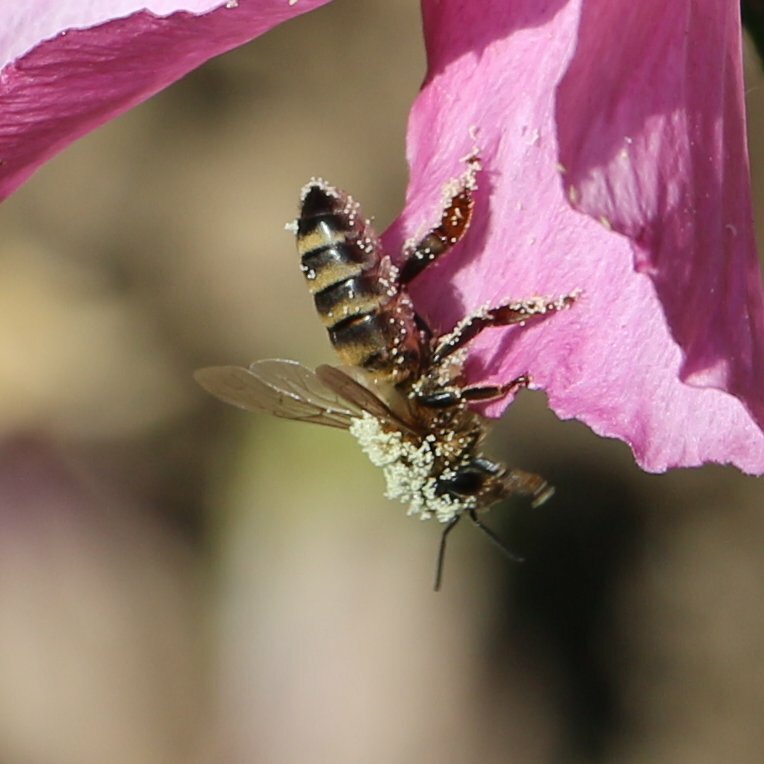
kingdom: Animalia
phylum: Arthropoda
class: Insecta
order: Hymenoptera
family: Apidae
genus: Apis
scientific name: Apis mellifera
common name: Honey bee
